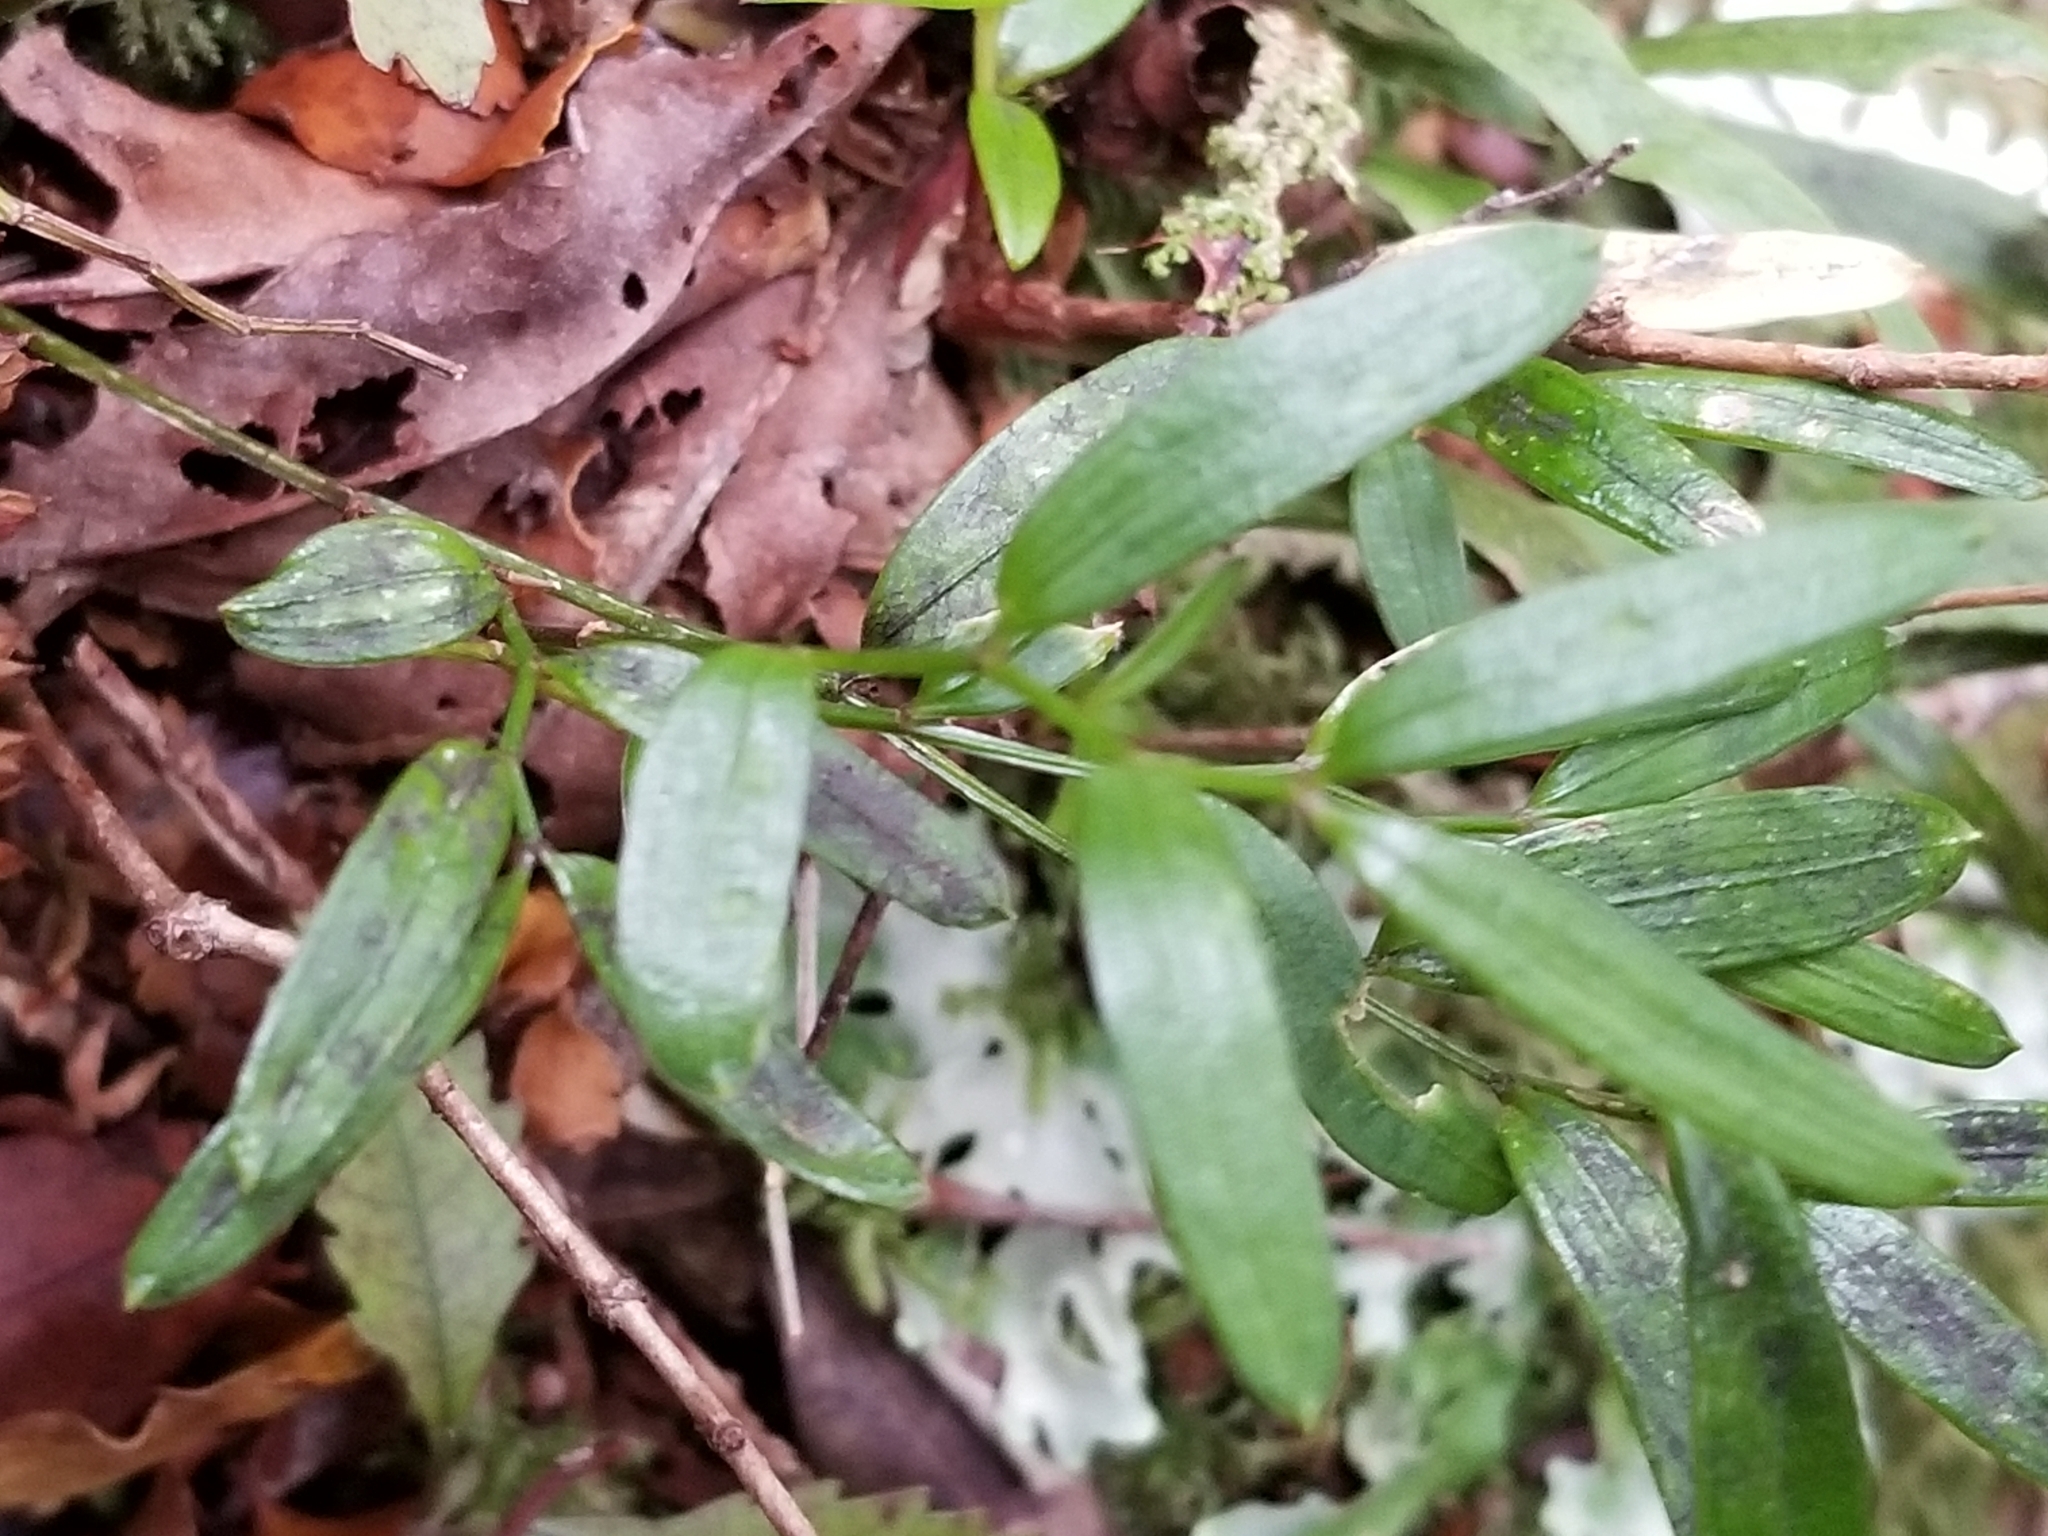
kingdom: Plantae
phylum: Tracheophyta
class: Liliopsida
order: Liliales
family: Alstroemeriaceae
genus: Luzuriaga
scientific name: Luzuriaga parviflora
